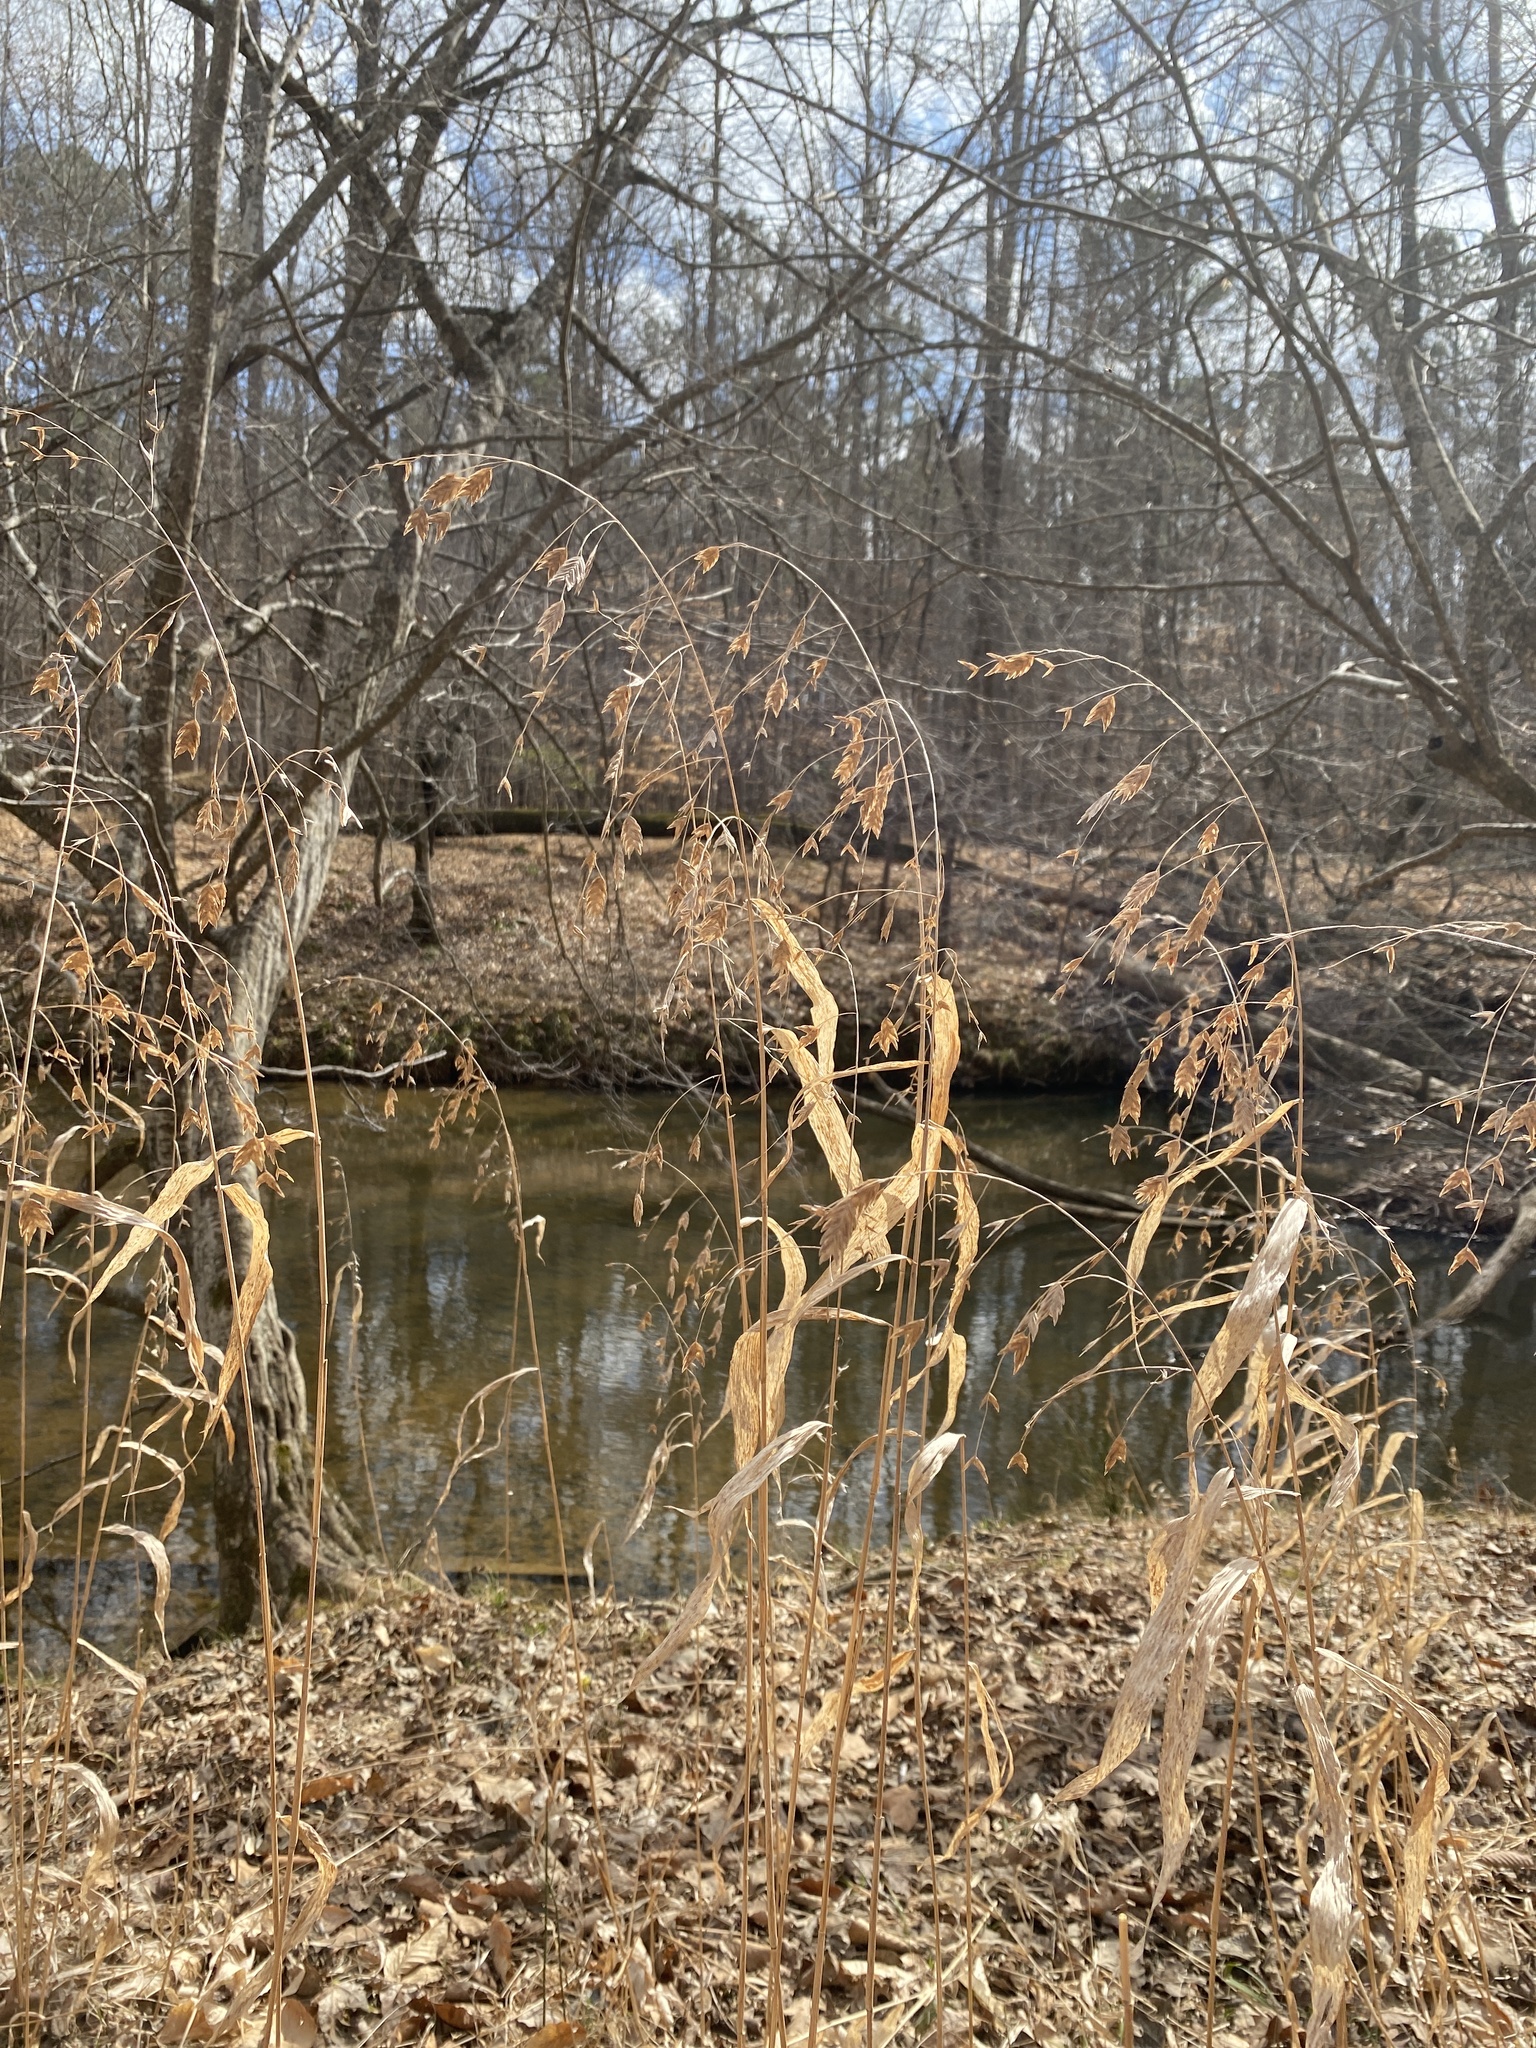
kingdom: Plantae
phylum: Tracheophyta
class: Liliopsida
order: Poales
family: Poaceae
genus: Chasmanthium
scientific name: Chasmanthium latifolium
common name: Broad-leaved chasmanthium
